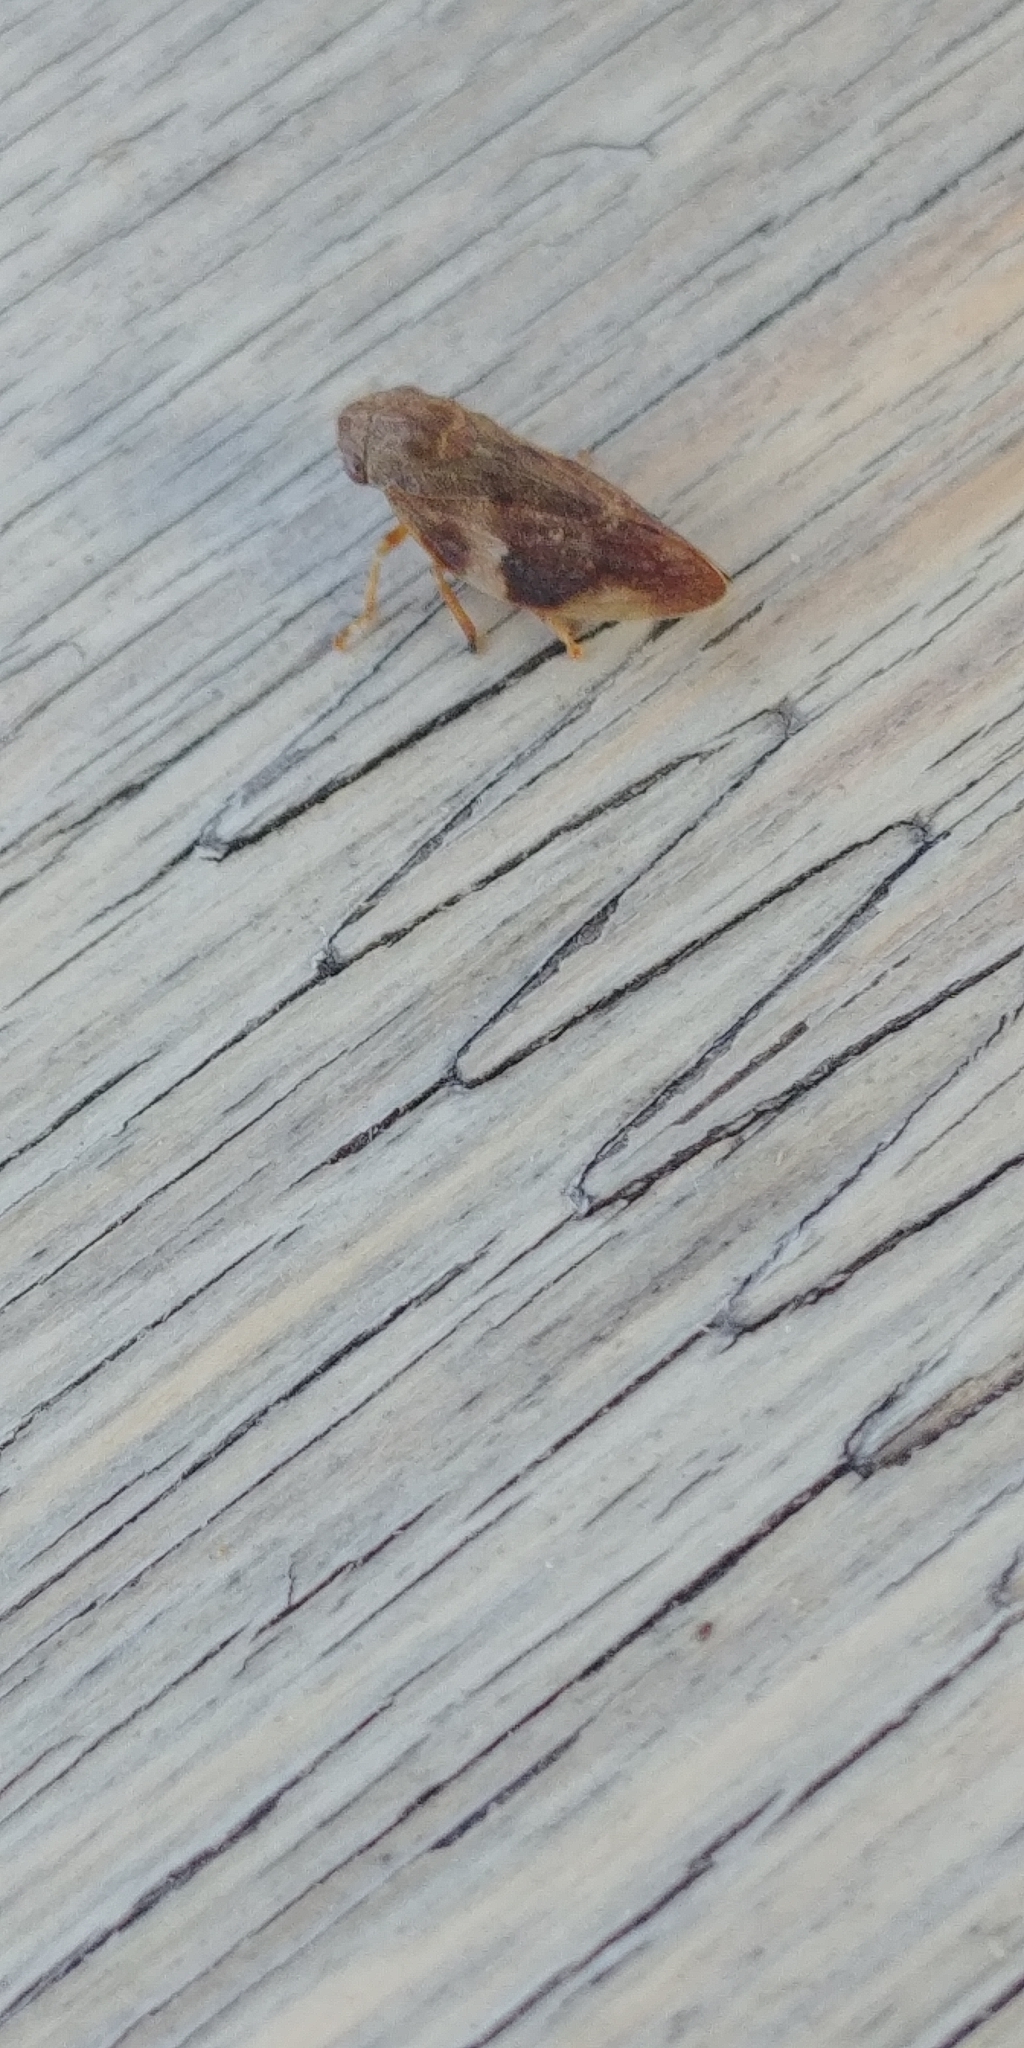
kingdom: Animalia
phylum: Arthropoda
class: Insecta
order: Hemiptera
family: Aphrophoridae
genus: Aphrophora
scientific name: Aphrophora alni
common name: European alder spittlebug
